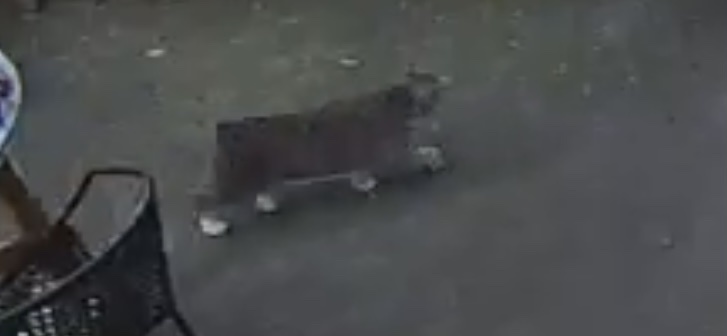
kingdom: Animalia
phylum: Chordata
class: Mammalia
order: Carnivora
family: Felidae
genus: Lynx
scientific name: Lynx rufus
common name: Bobcat
